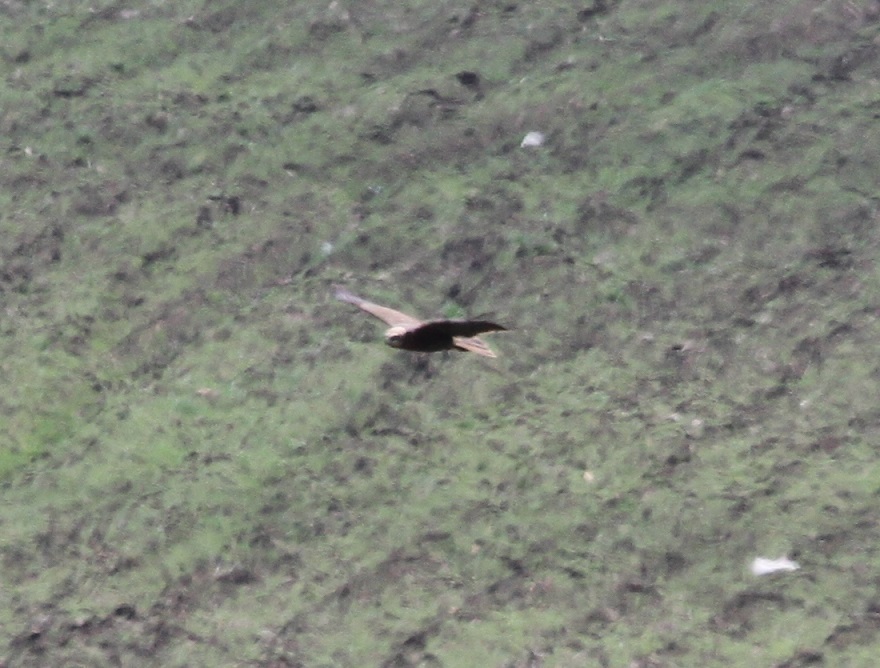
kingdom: Animalia
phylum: Chordata
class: Aves
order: Accipitriformes
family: Accipitridae
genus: Circus
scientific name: Circus aeruginosus
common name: Western marsh harrier
